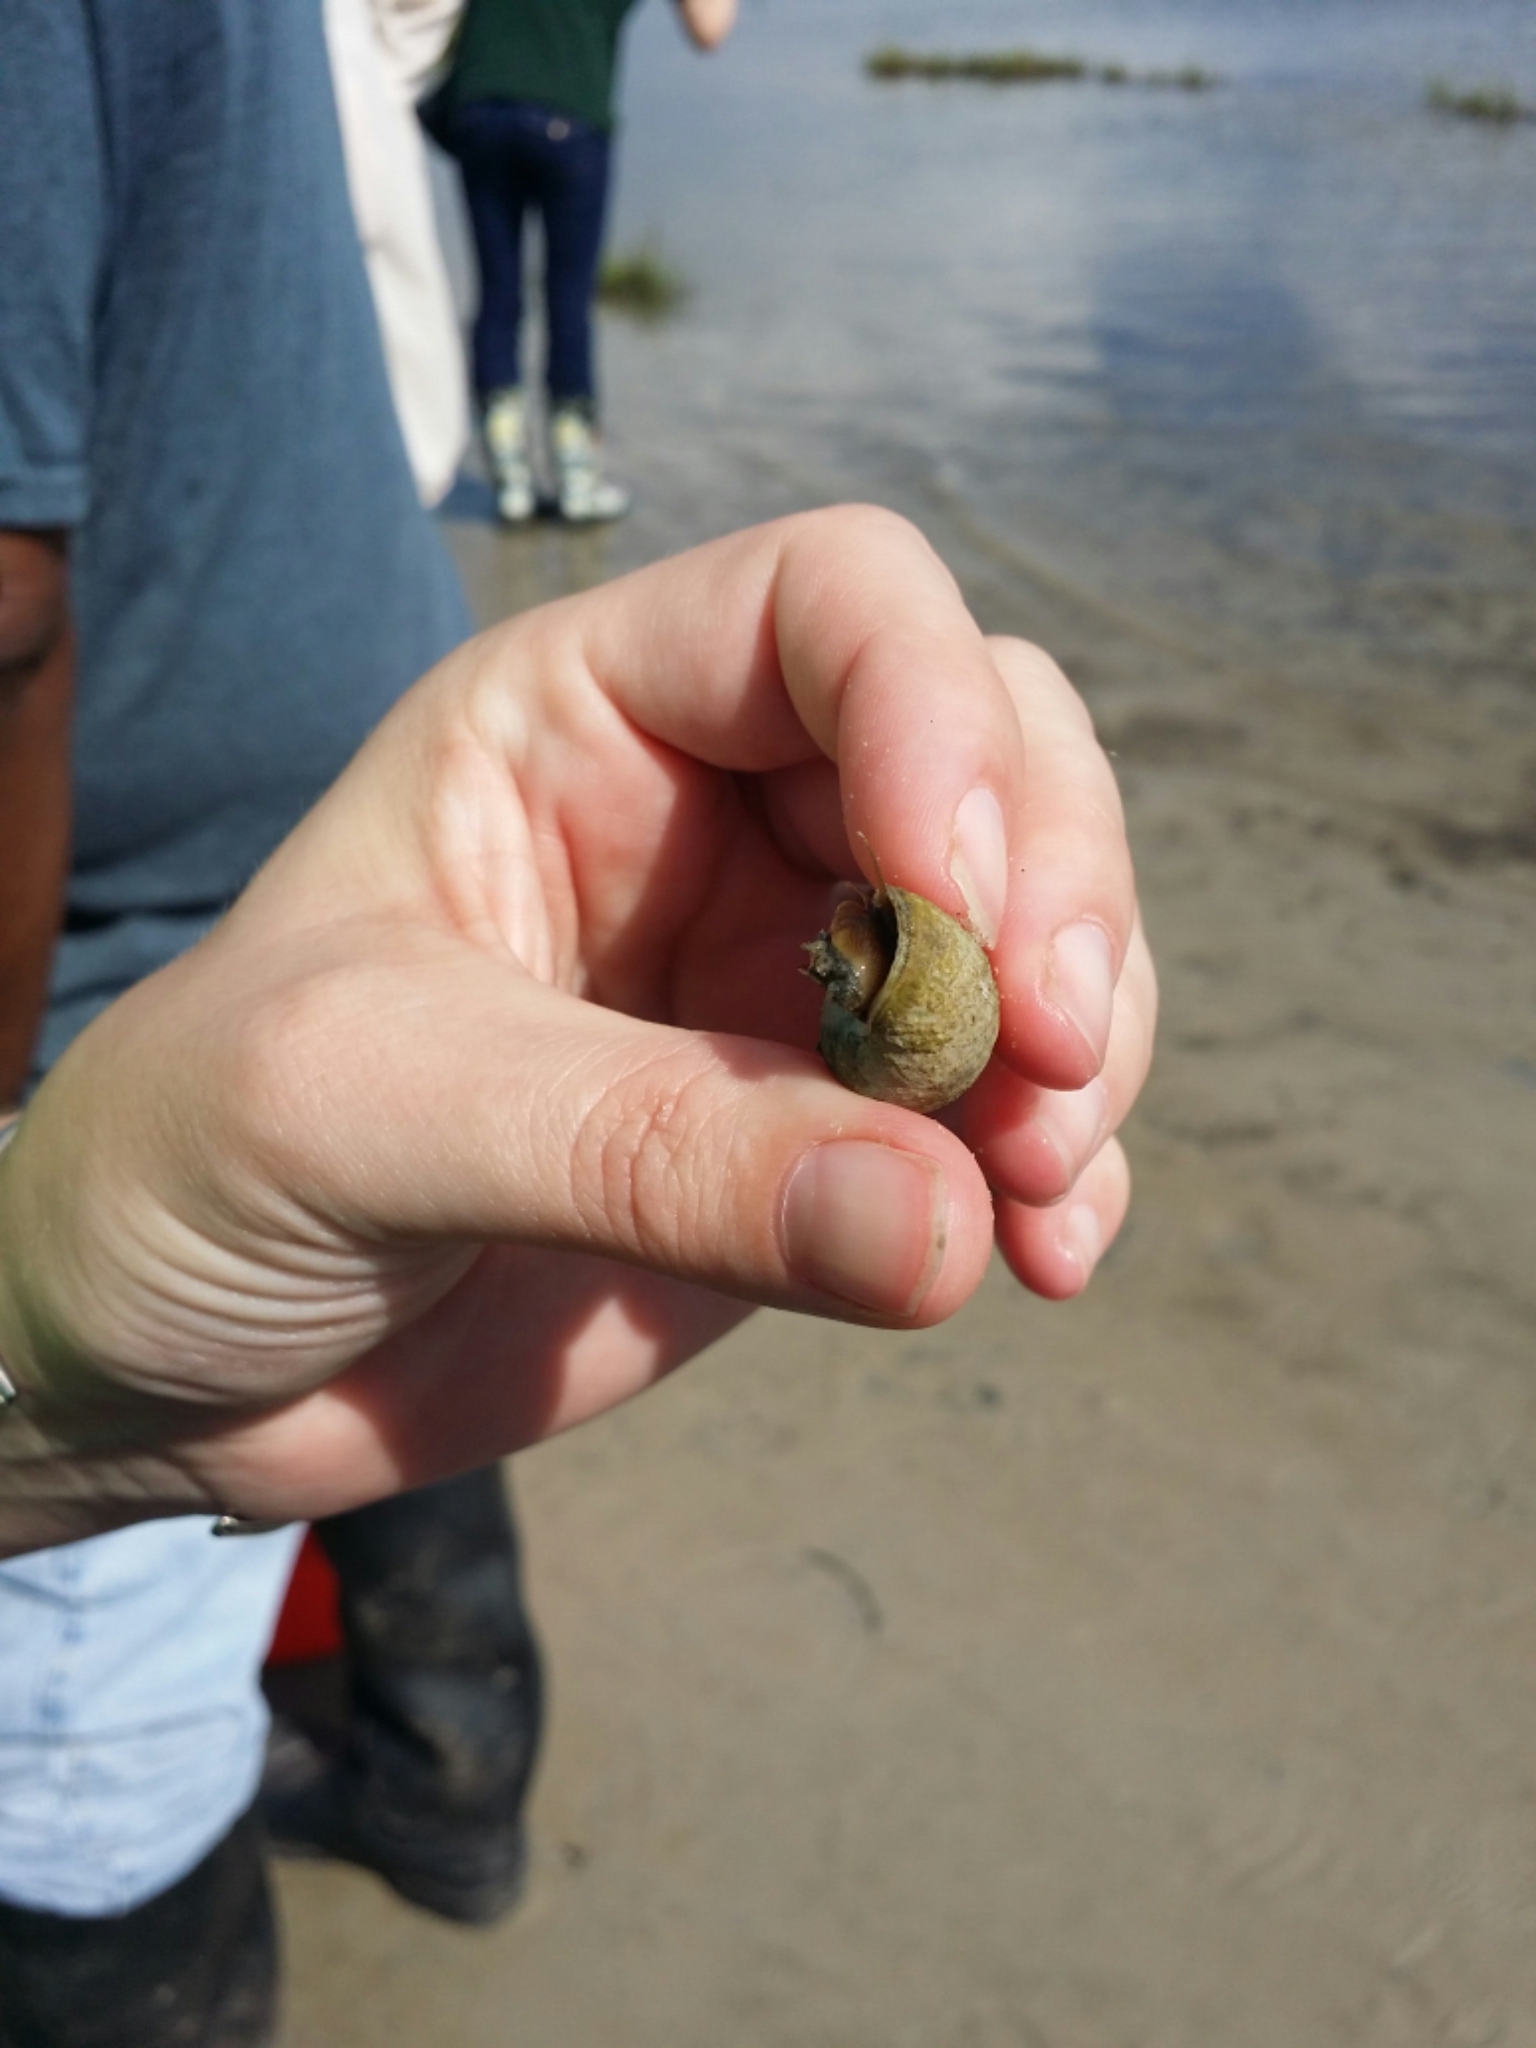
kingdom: Animalia
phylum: Mollusca
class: Gastropoda
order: Littorinimorpha
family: Littorinidae
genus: Littoraria
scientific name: Littoraria irrorata
